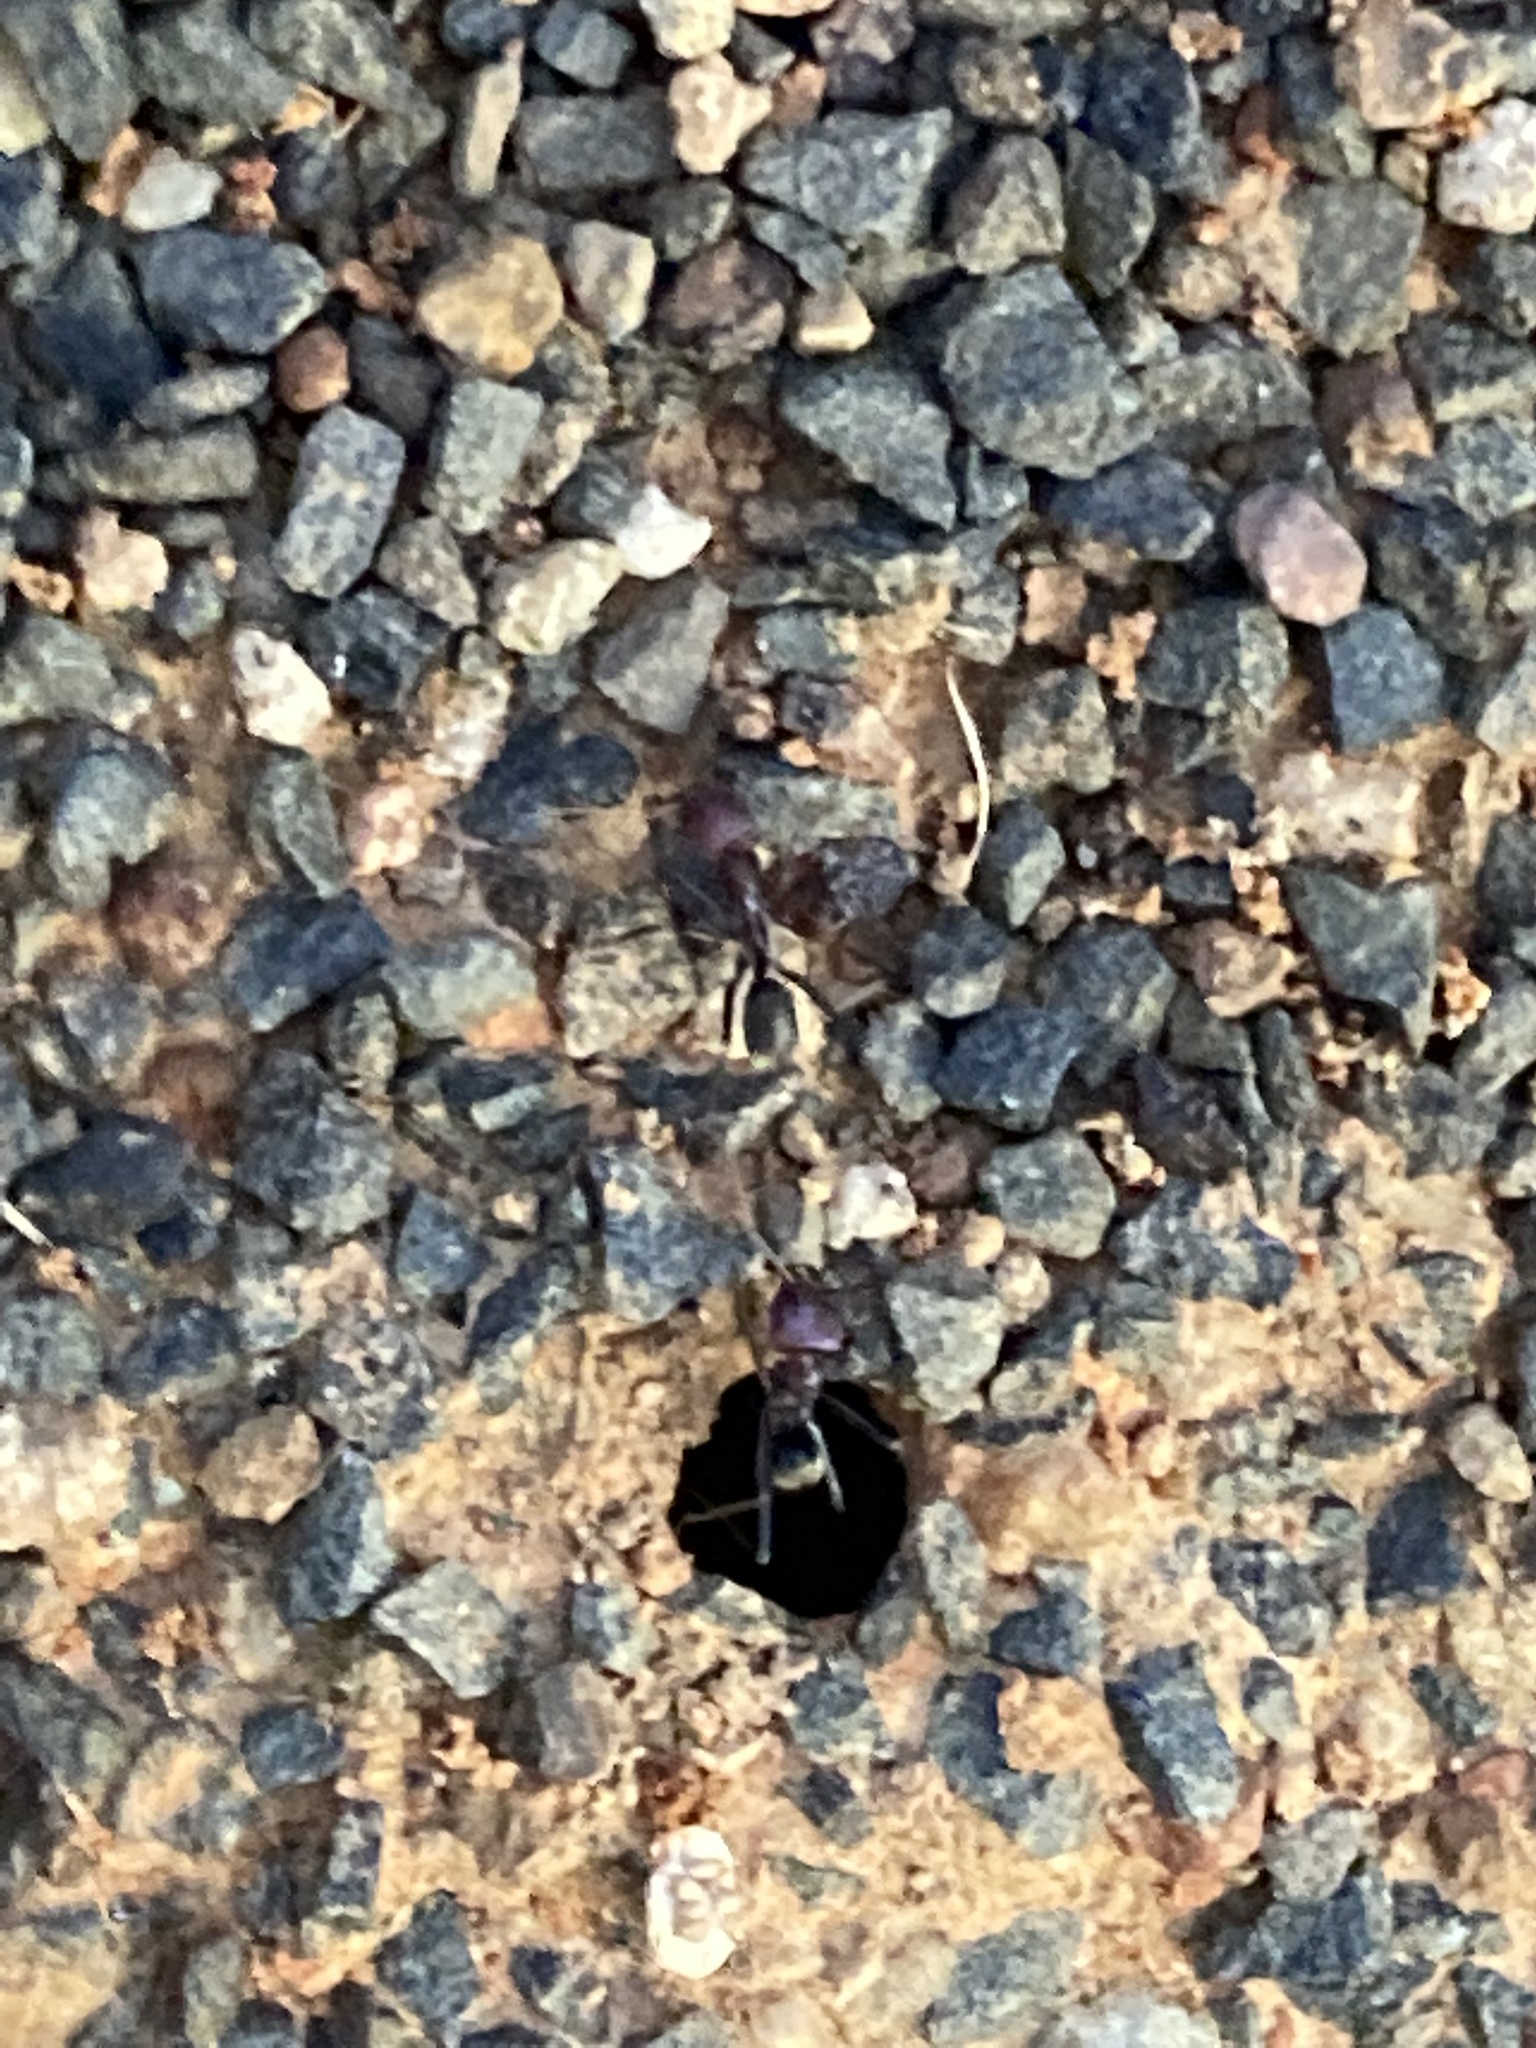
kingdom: Animalia
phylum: Arthropoda
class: Insecta
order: Hymenoptera
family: Formicidae
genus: Iridomyrmex
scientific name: Iridomyrmex purpureus
